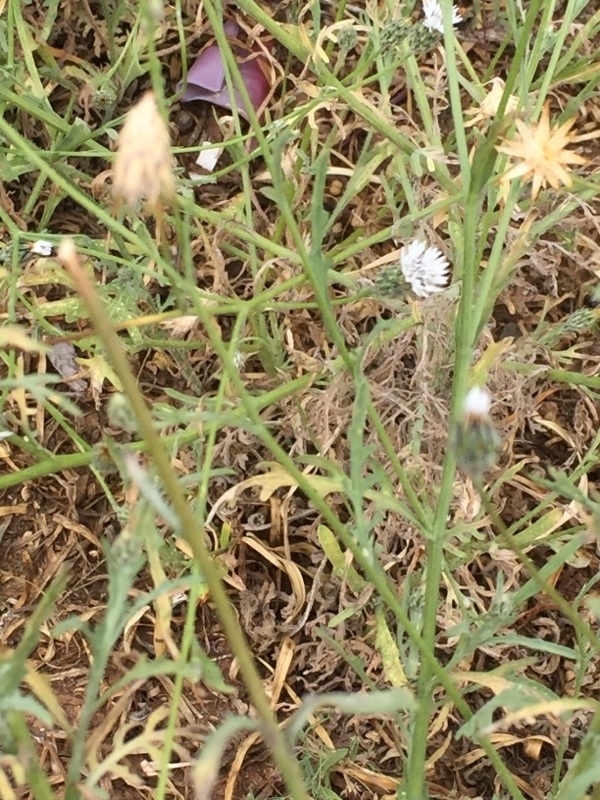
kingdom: Plantae
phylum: Tracheophyta
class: Magnoliopsida
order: Asterales
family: Asteraceae
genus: Volutaria
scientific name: Volutaria canariensis
